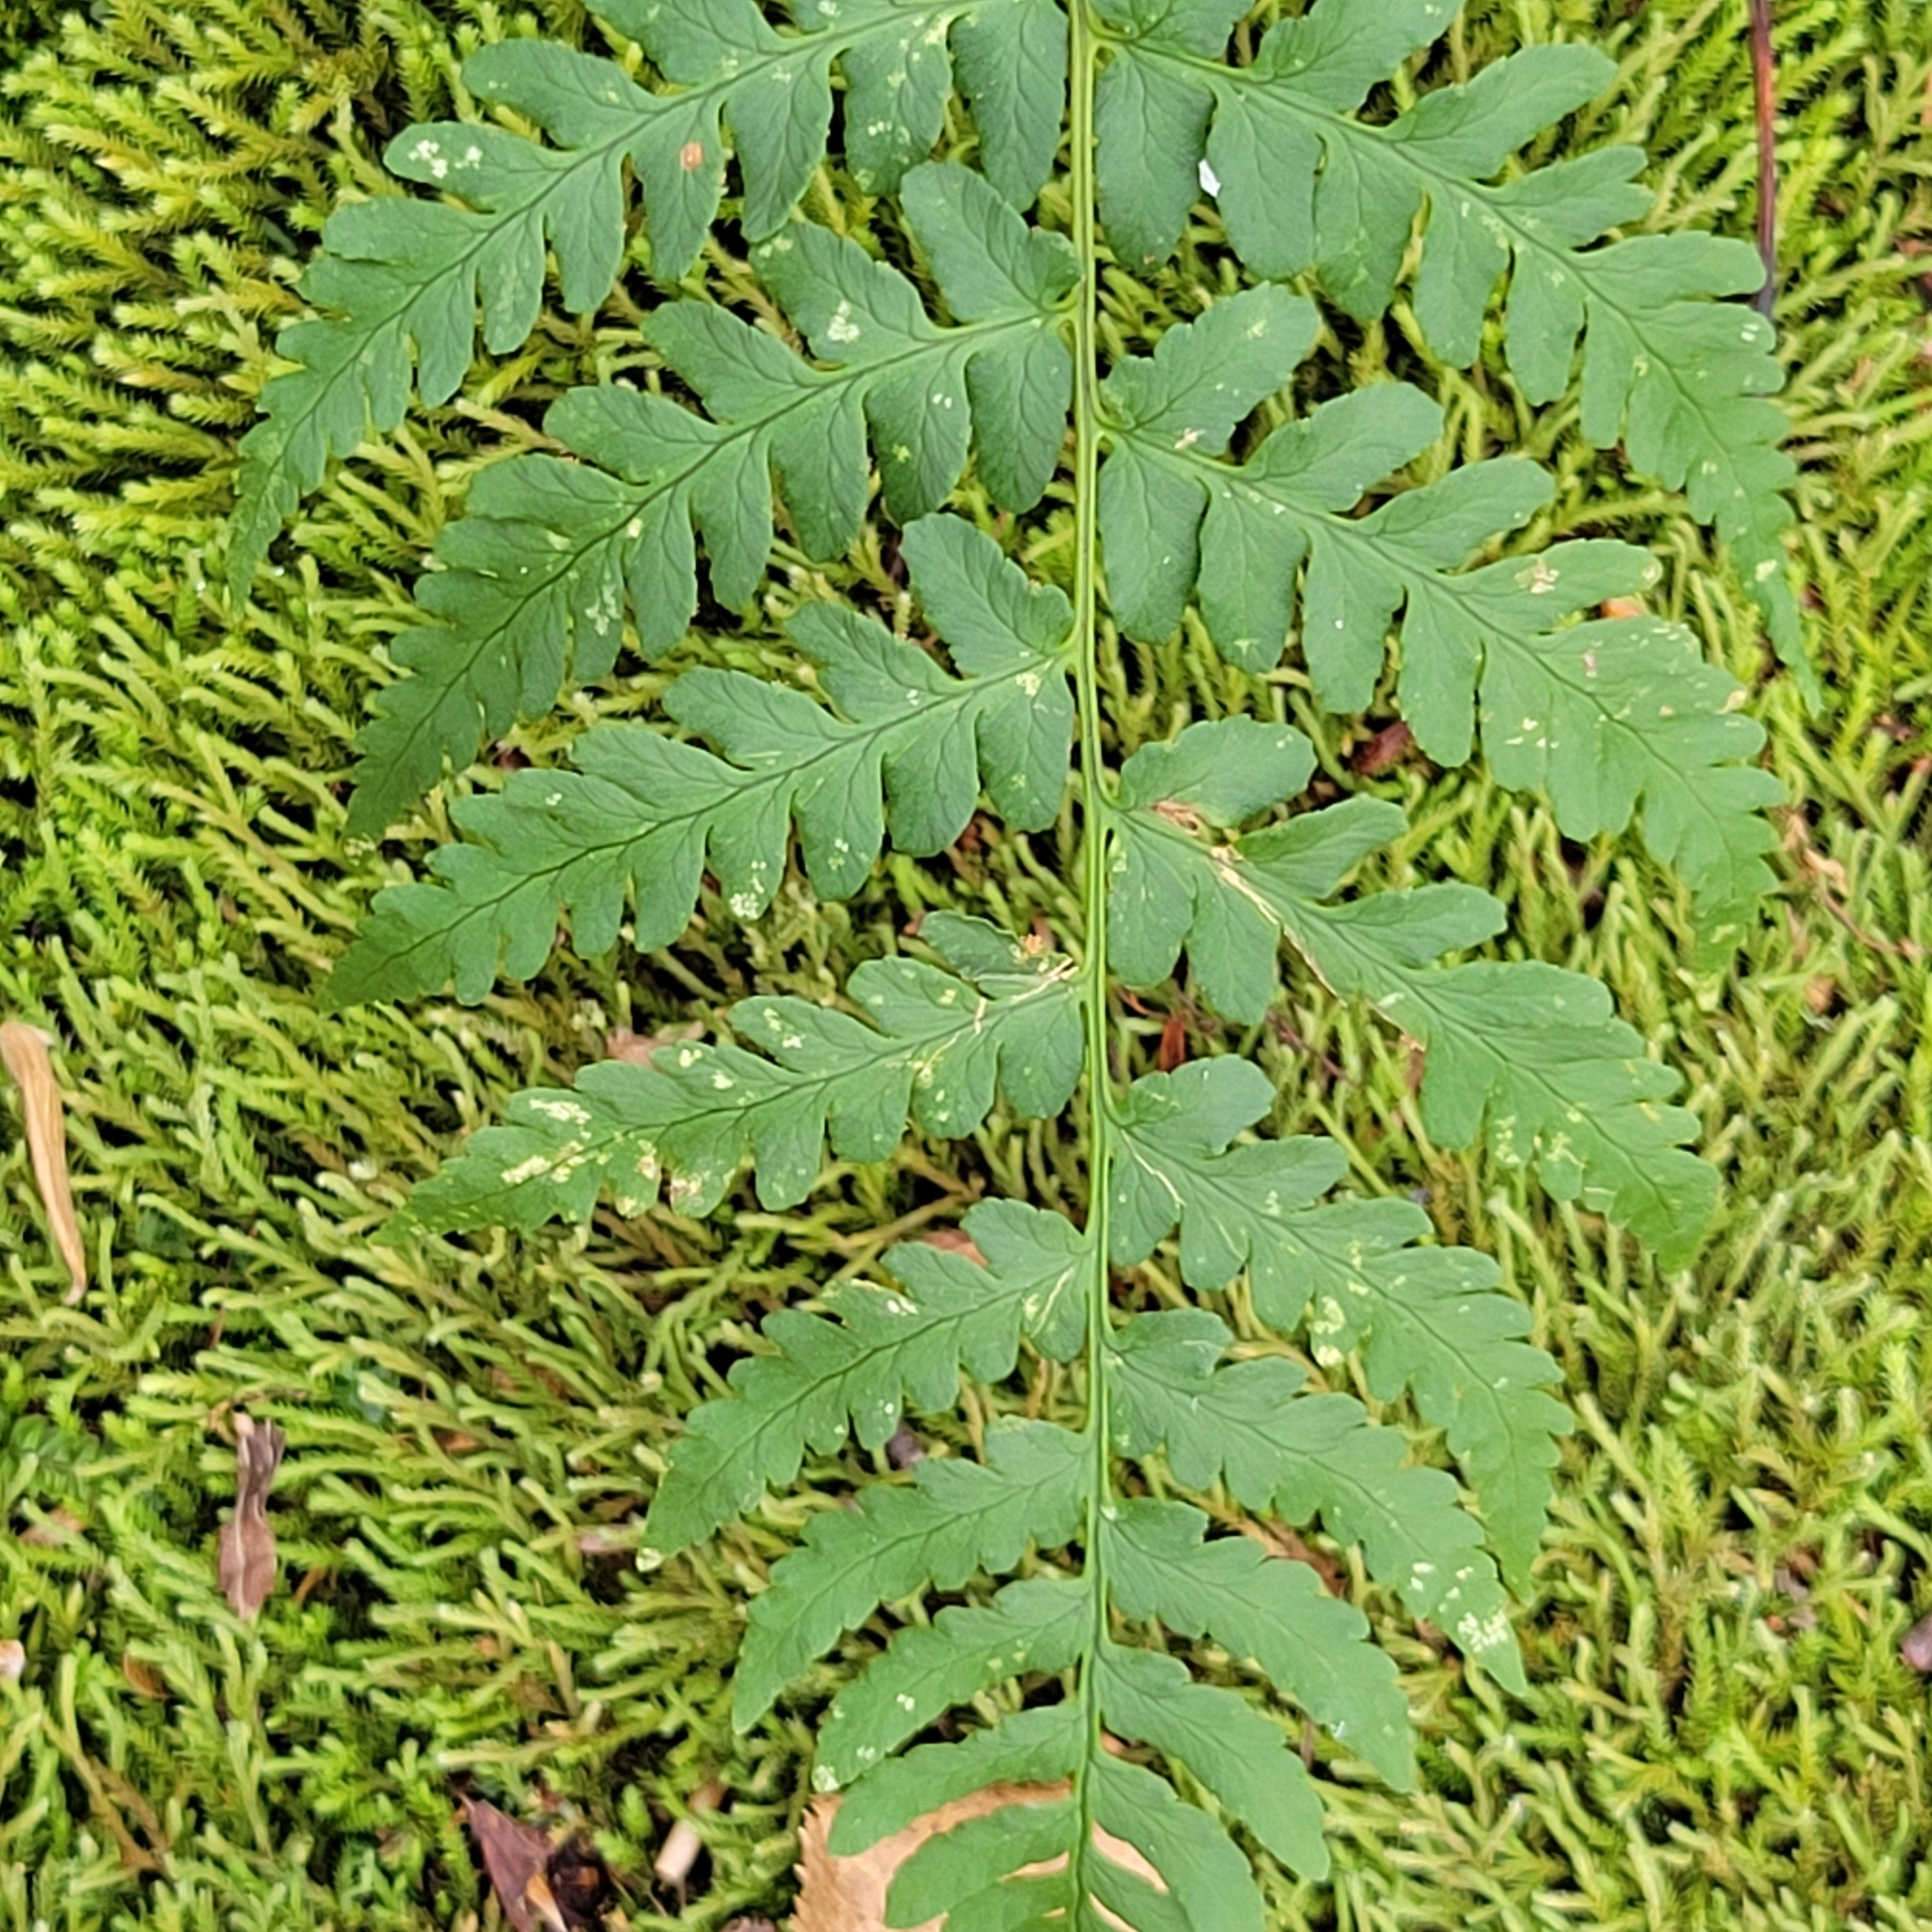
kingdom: Plantae
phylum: Tracheophyta
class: Polypodiopsida
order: Polypodiales
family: Dryopteridaceae
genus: Dryopteris
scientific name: Dryopteris marginalis
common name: Marginal wood fern
